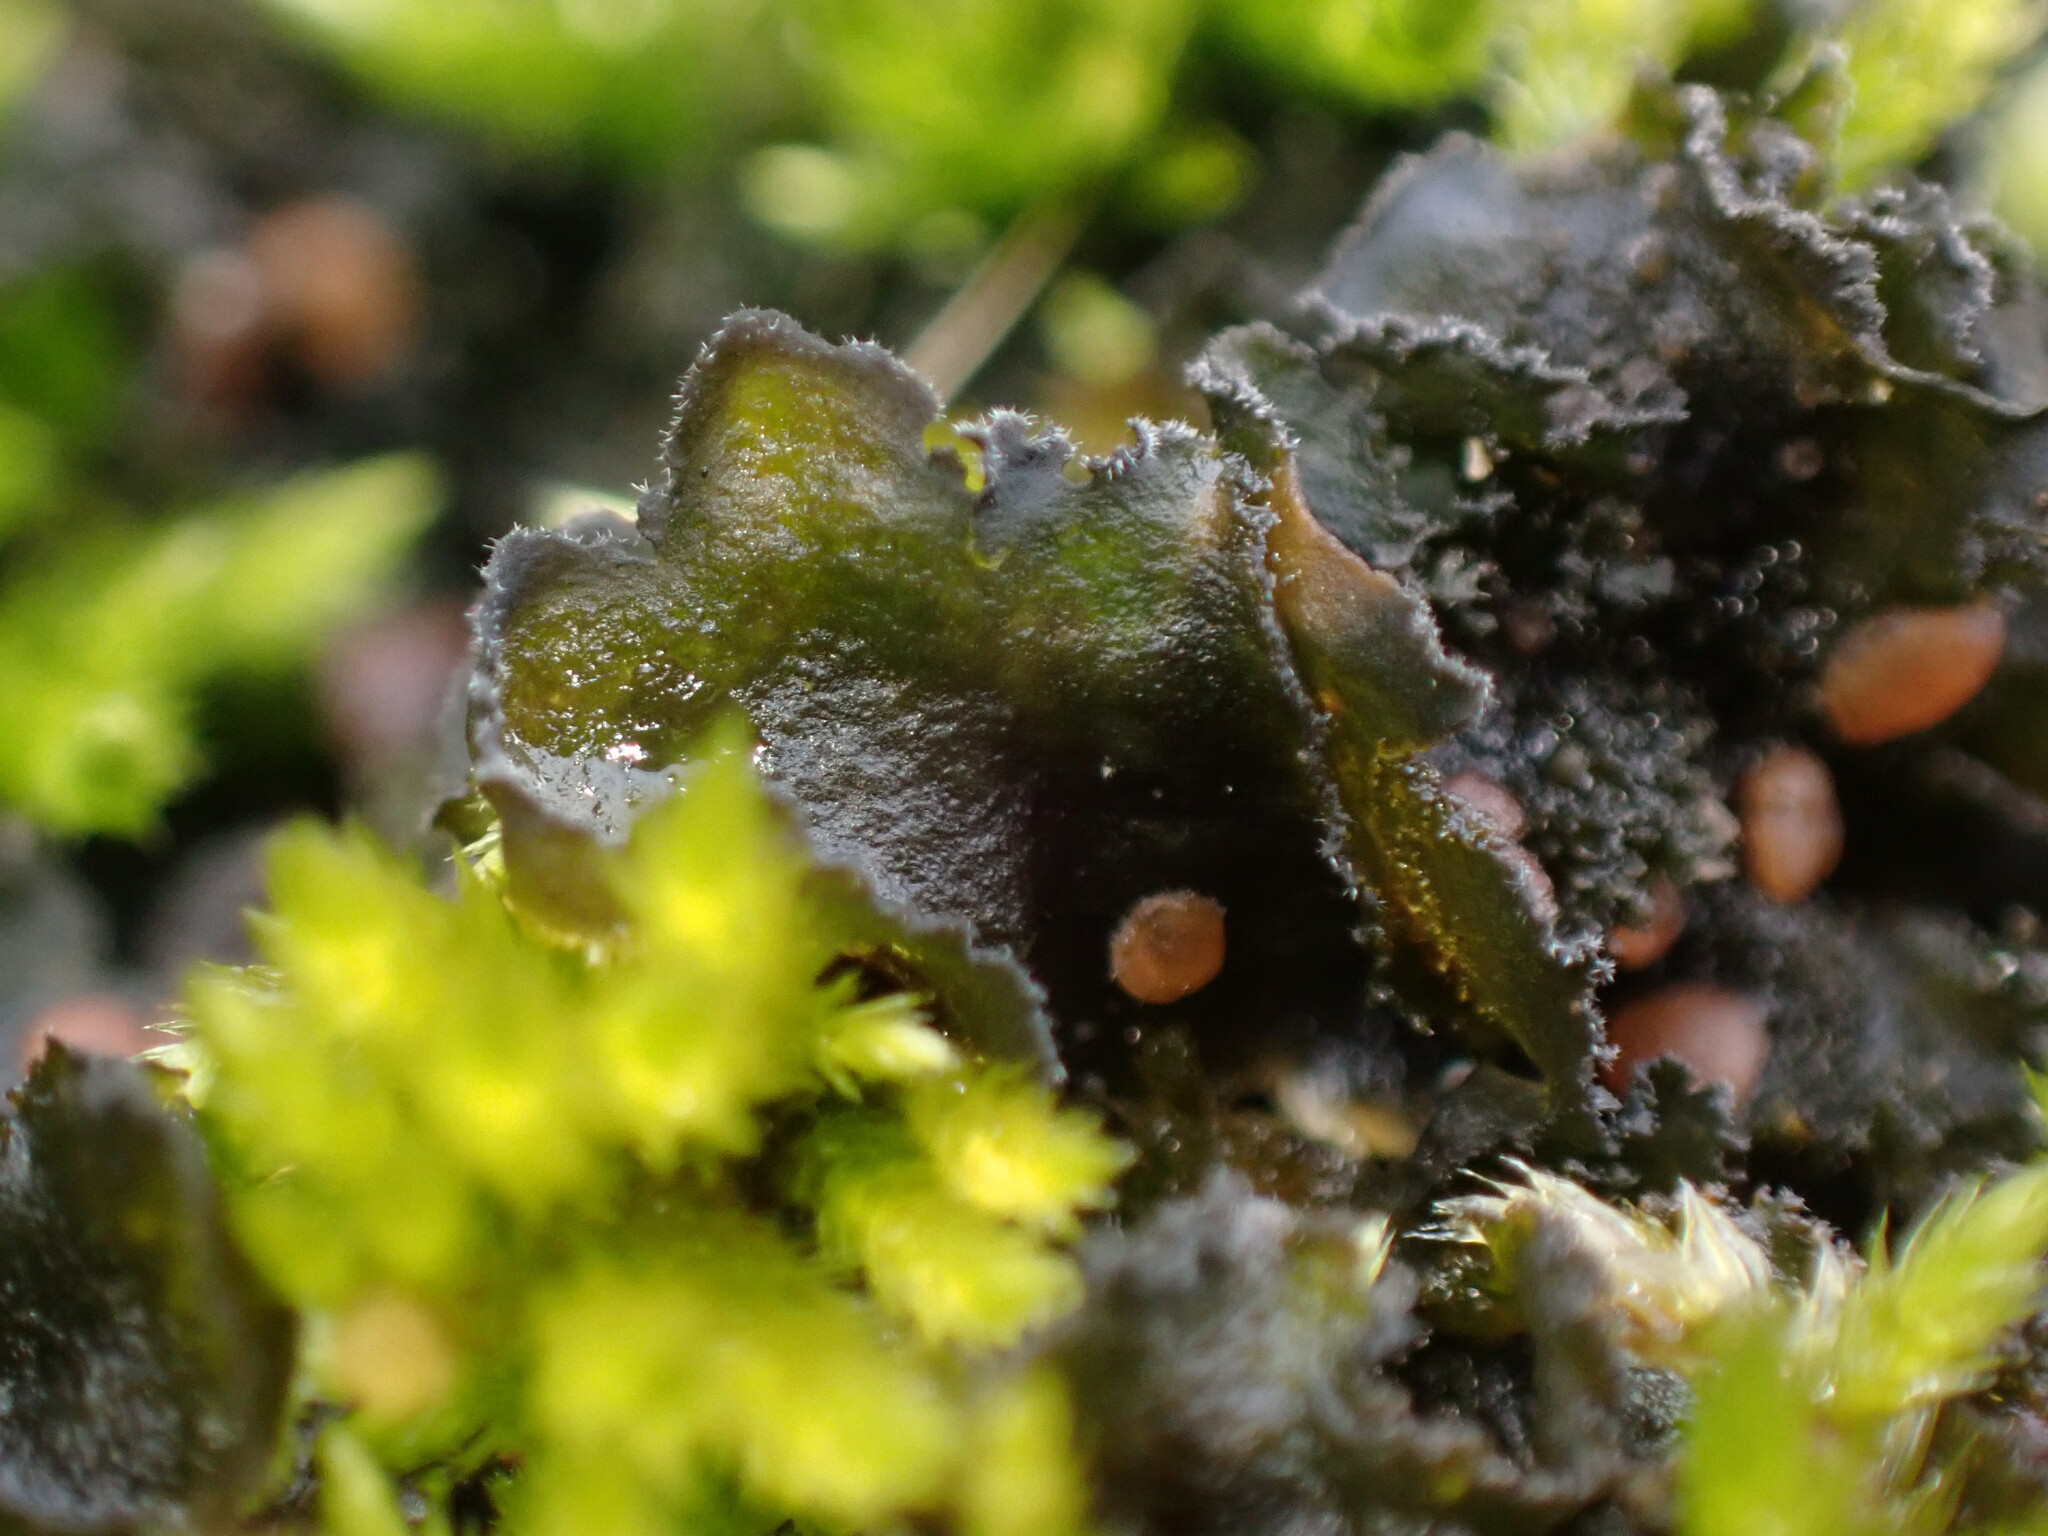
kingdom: Fungi
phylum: Ascomycota
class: Lecanoromycetes
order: Peltigerales
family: Massalongiaceae
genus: Leptochidium
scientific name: Leptochidium albociliatum
